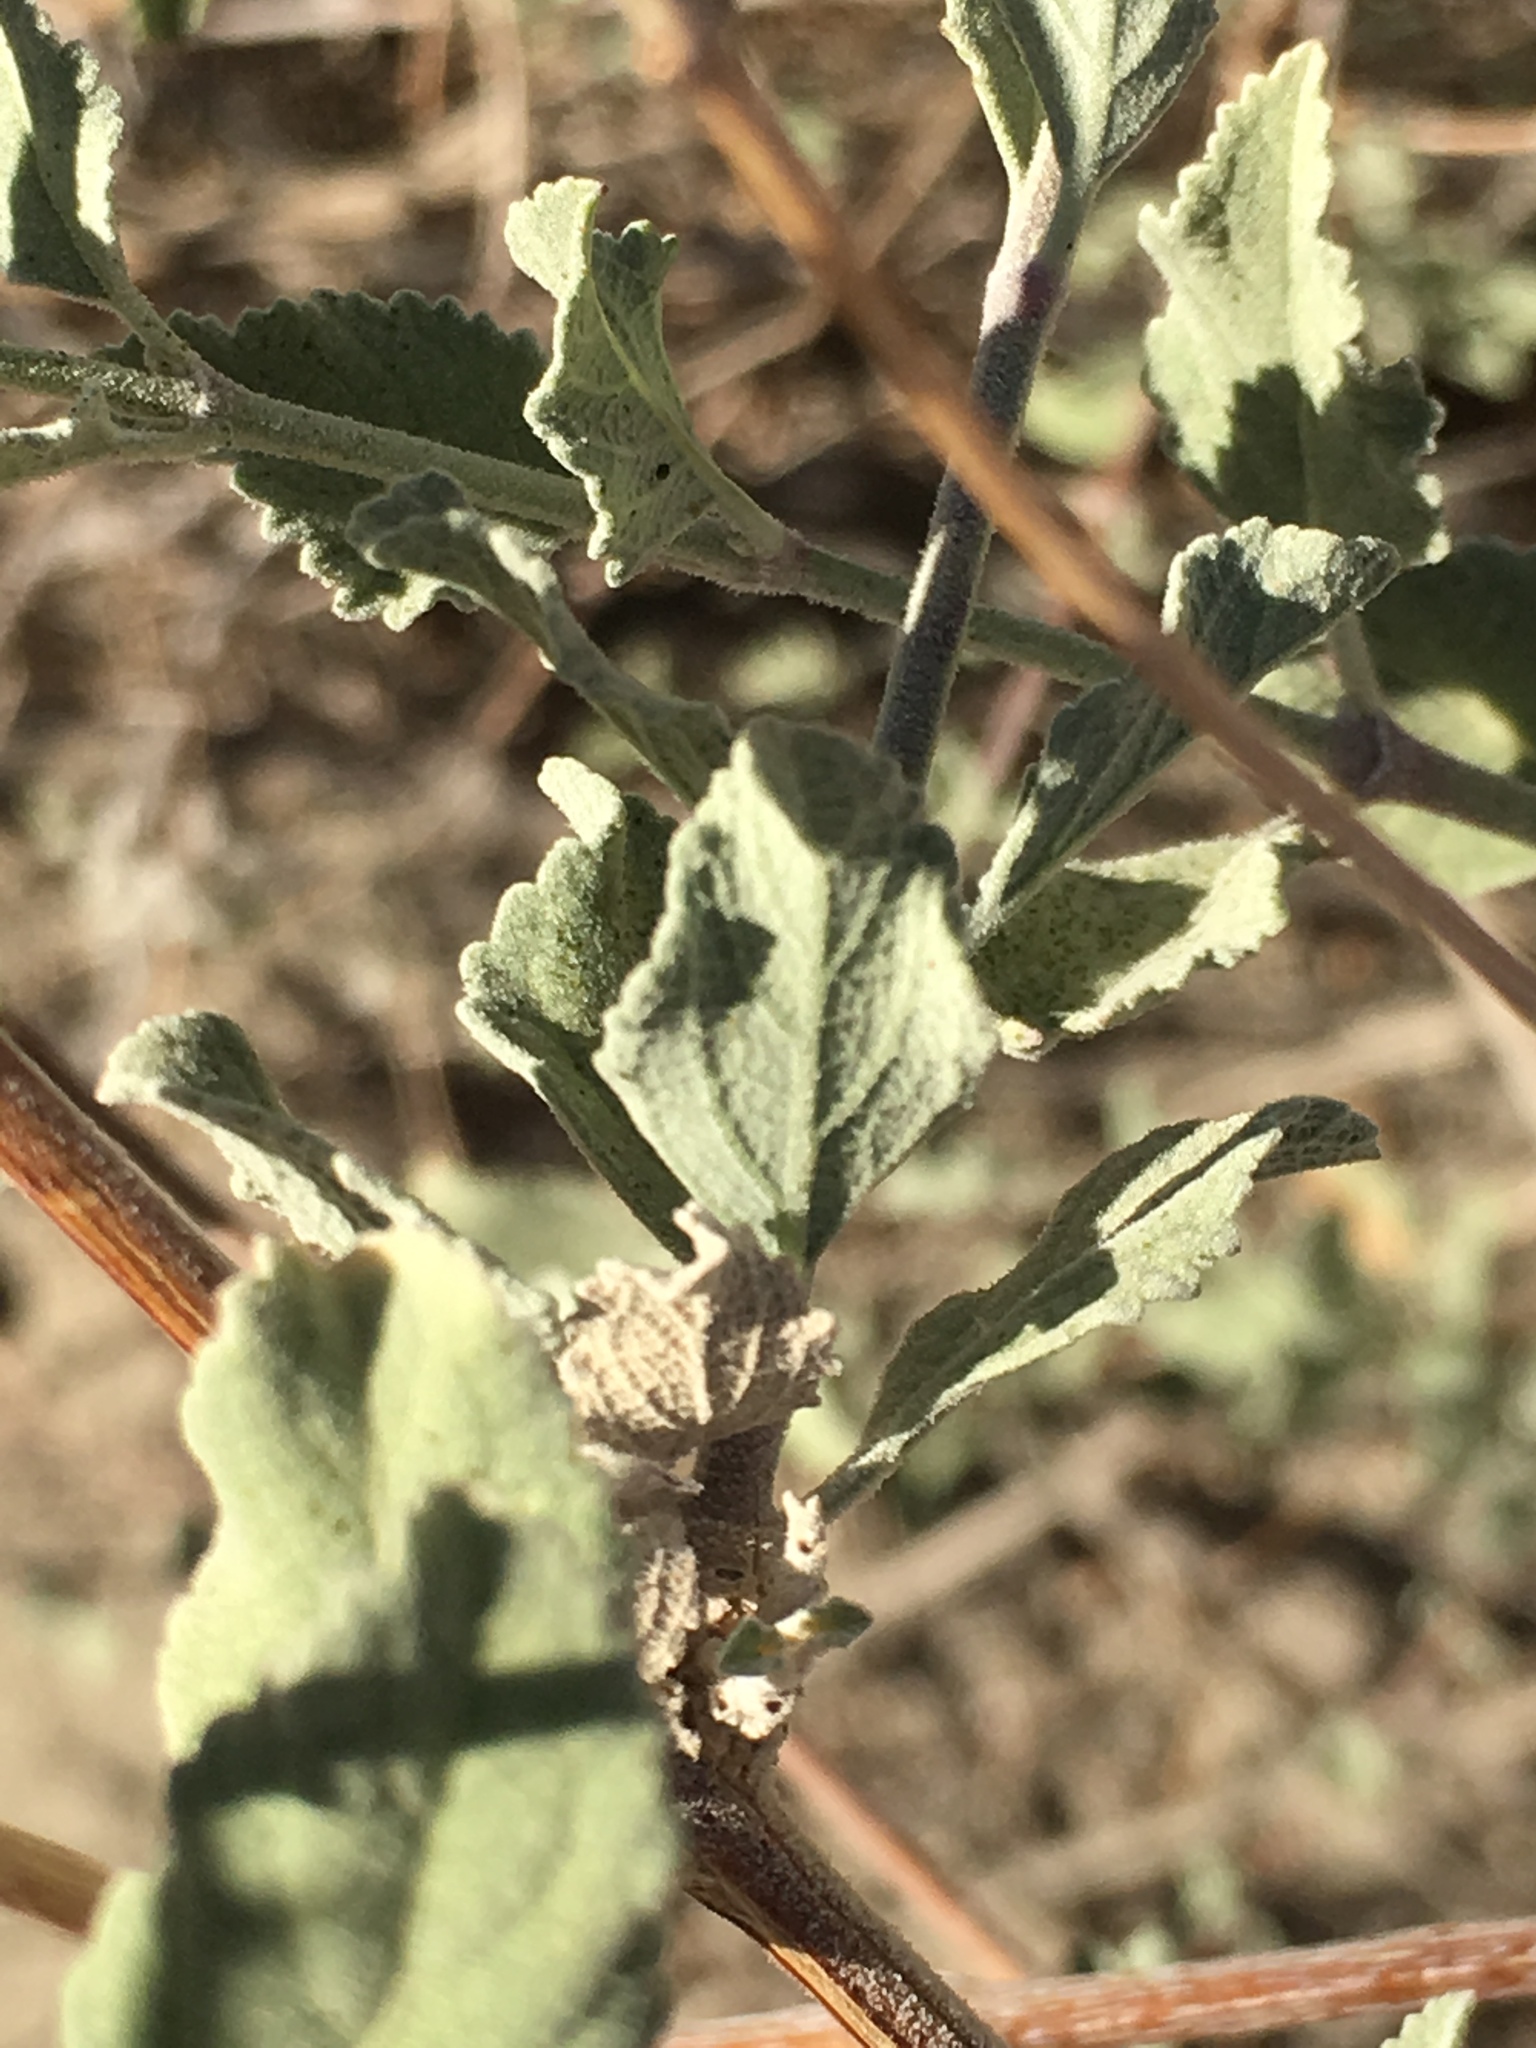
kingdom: Plantae
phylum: Tracheophyta
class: Magnoliopsida
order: Lamiales
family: Lamiaceae
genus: Condea
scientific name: Condea emoryi
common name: Chia
